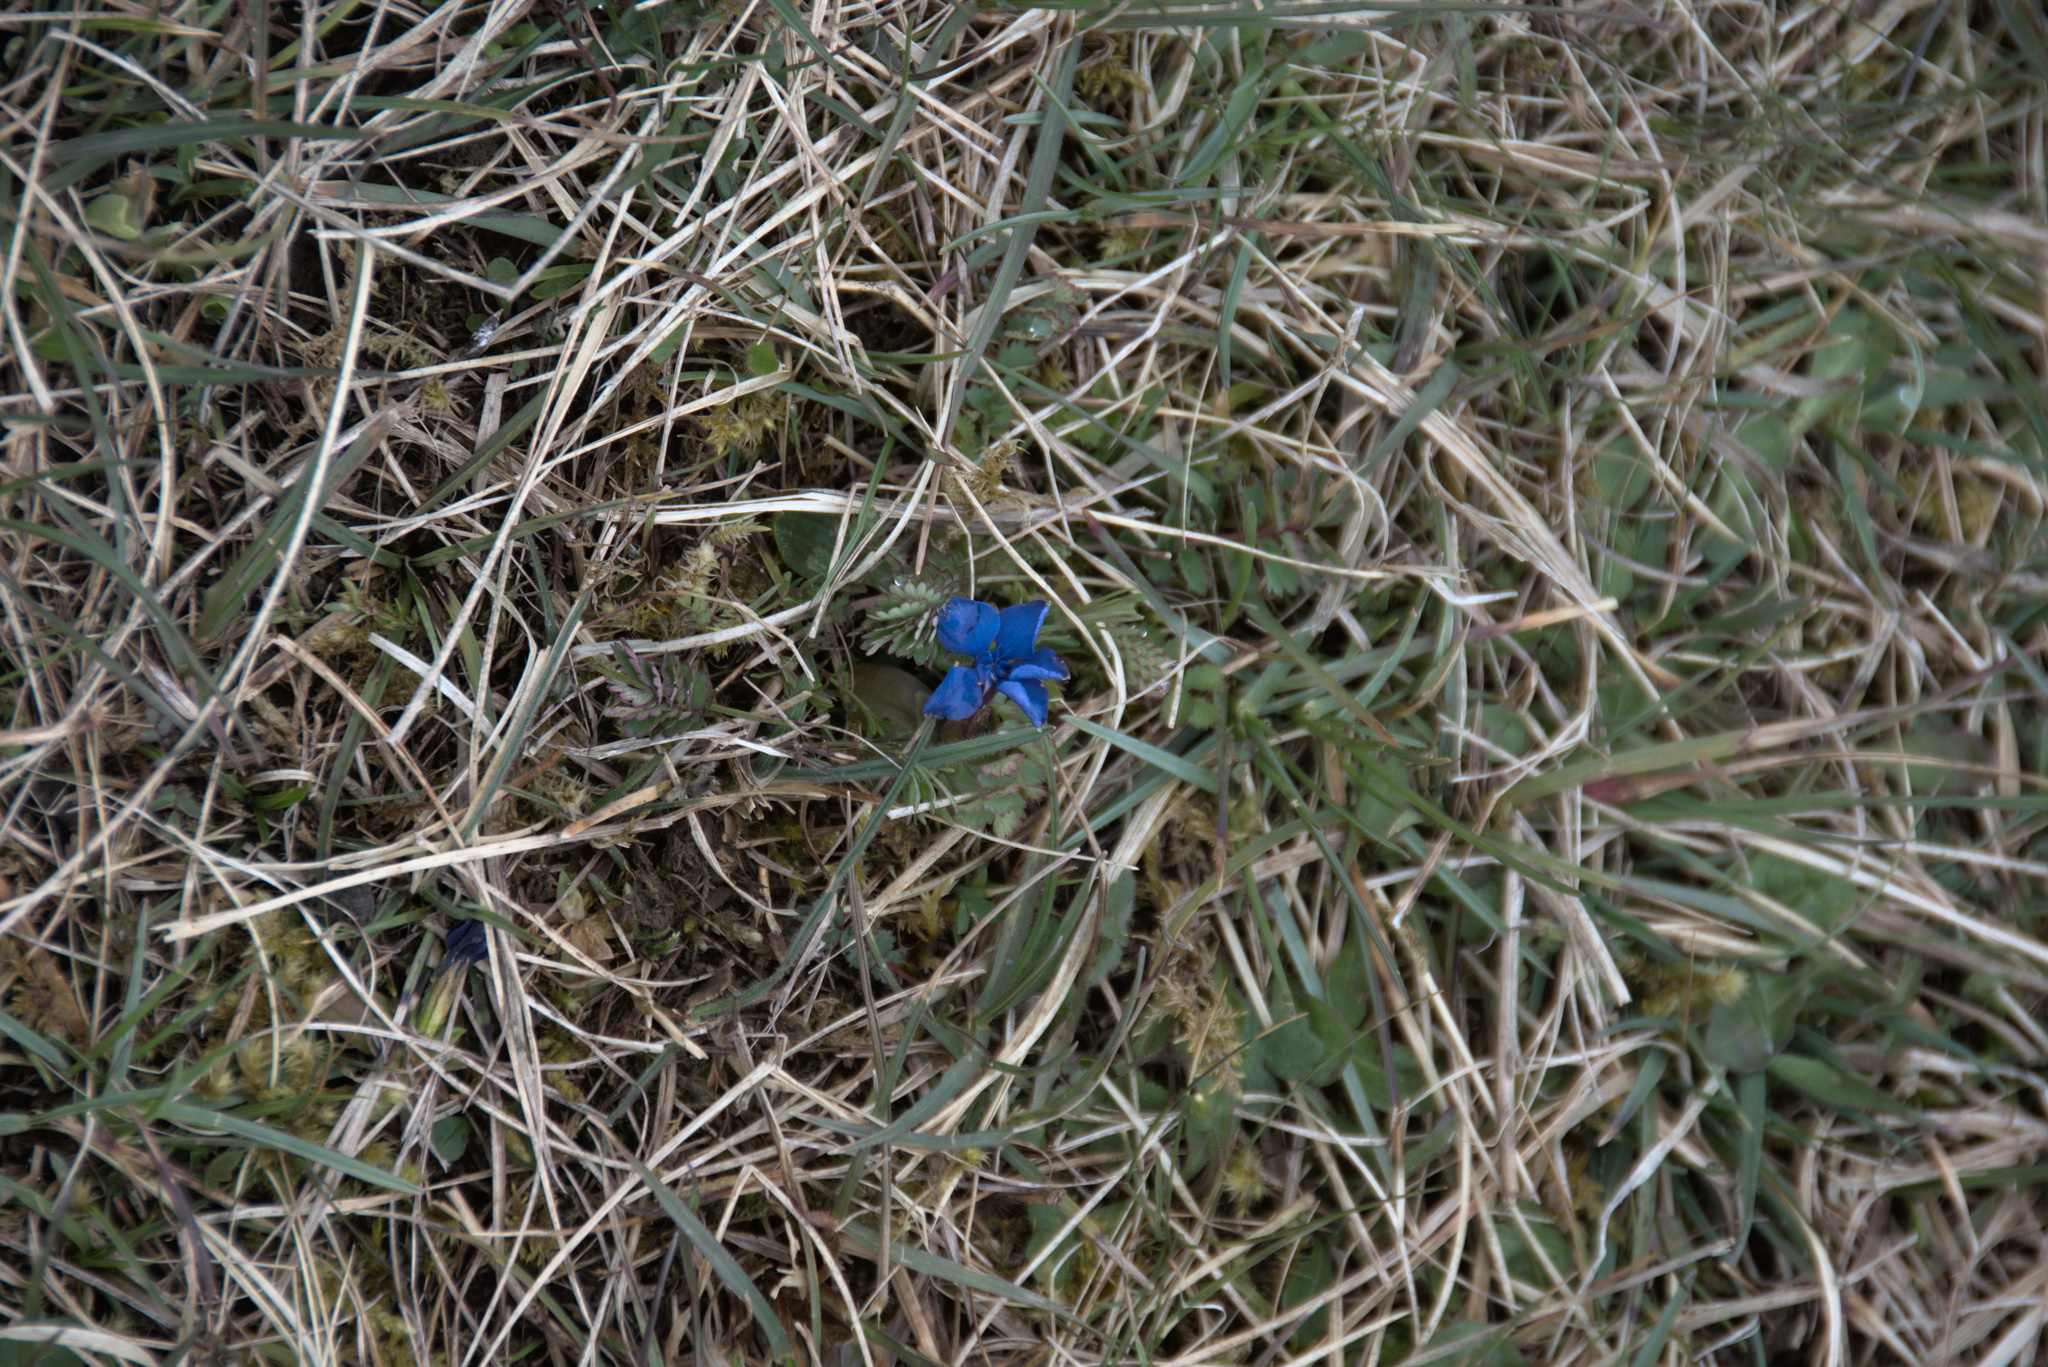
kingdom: Plantae
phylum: Tracheophyta
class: Magnoliopsida
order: Gentianales
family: Gentianaceae
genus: Gentiana
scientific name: Gentiana verna
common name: Spring gentian
